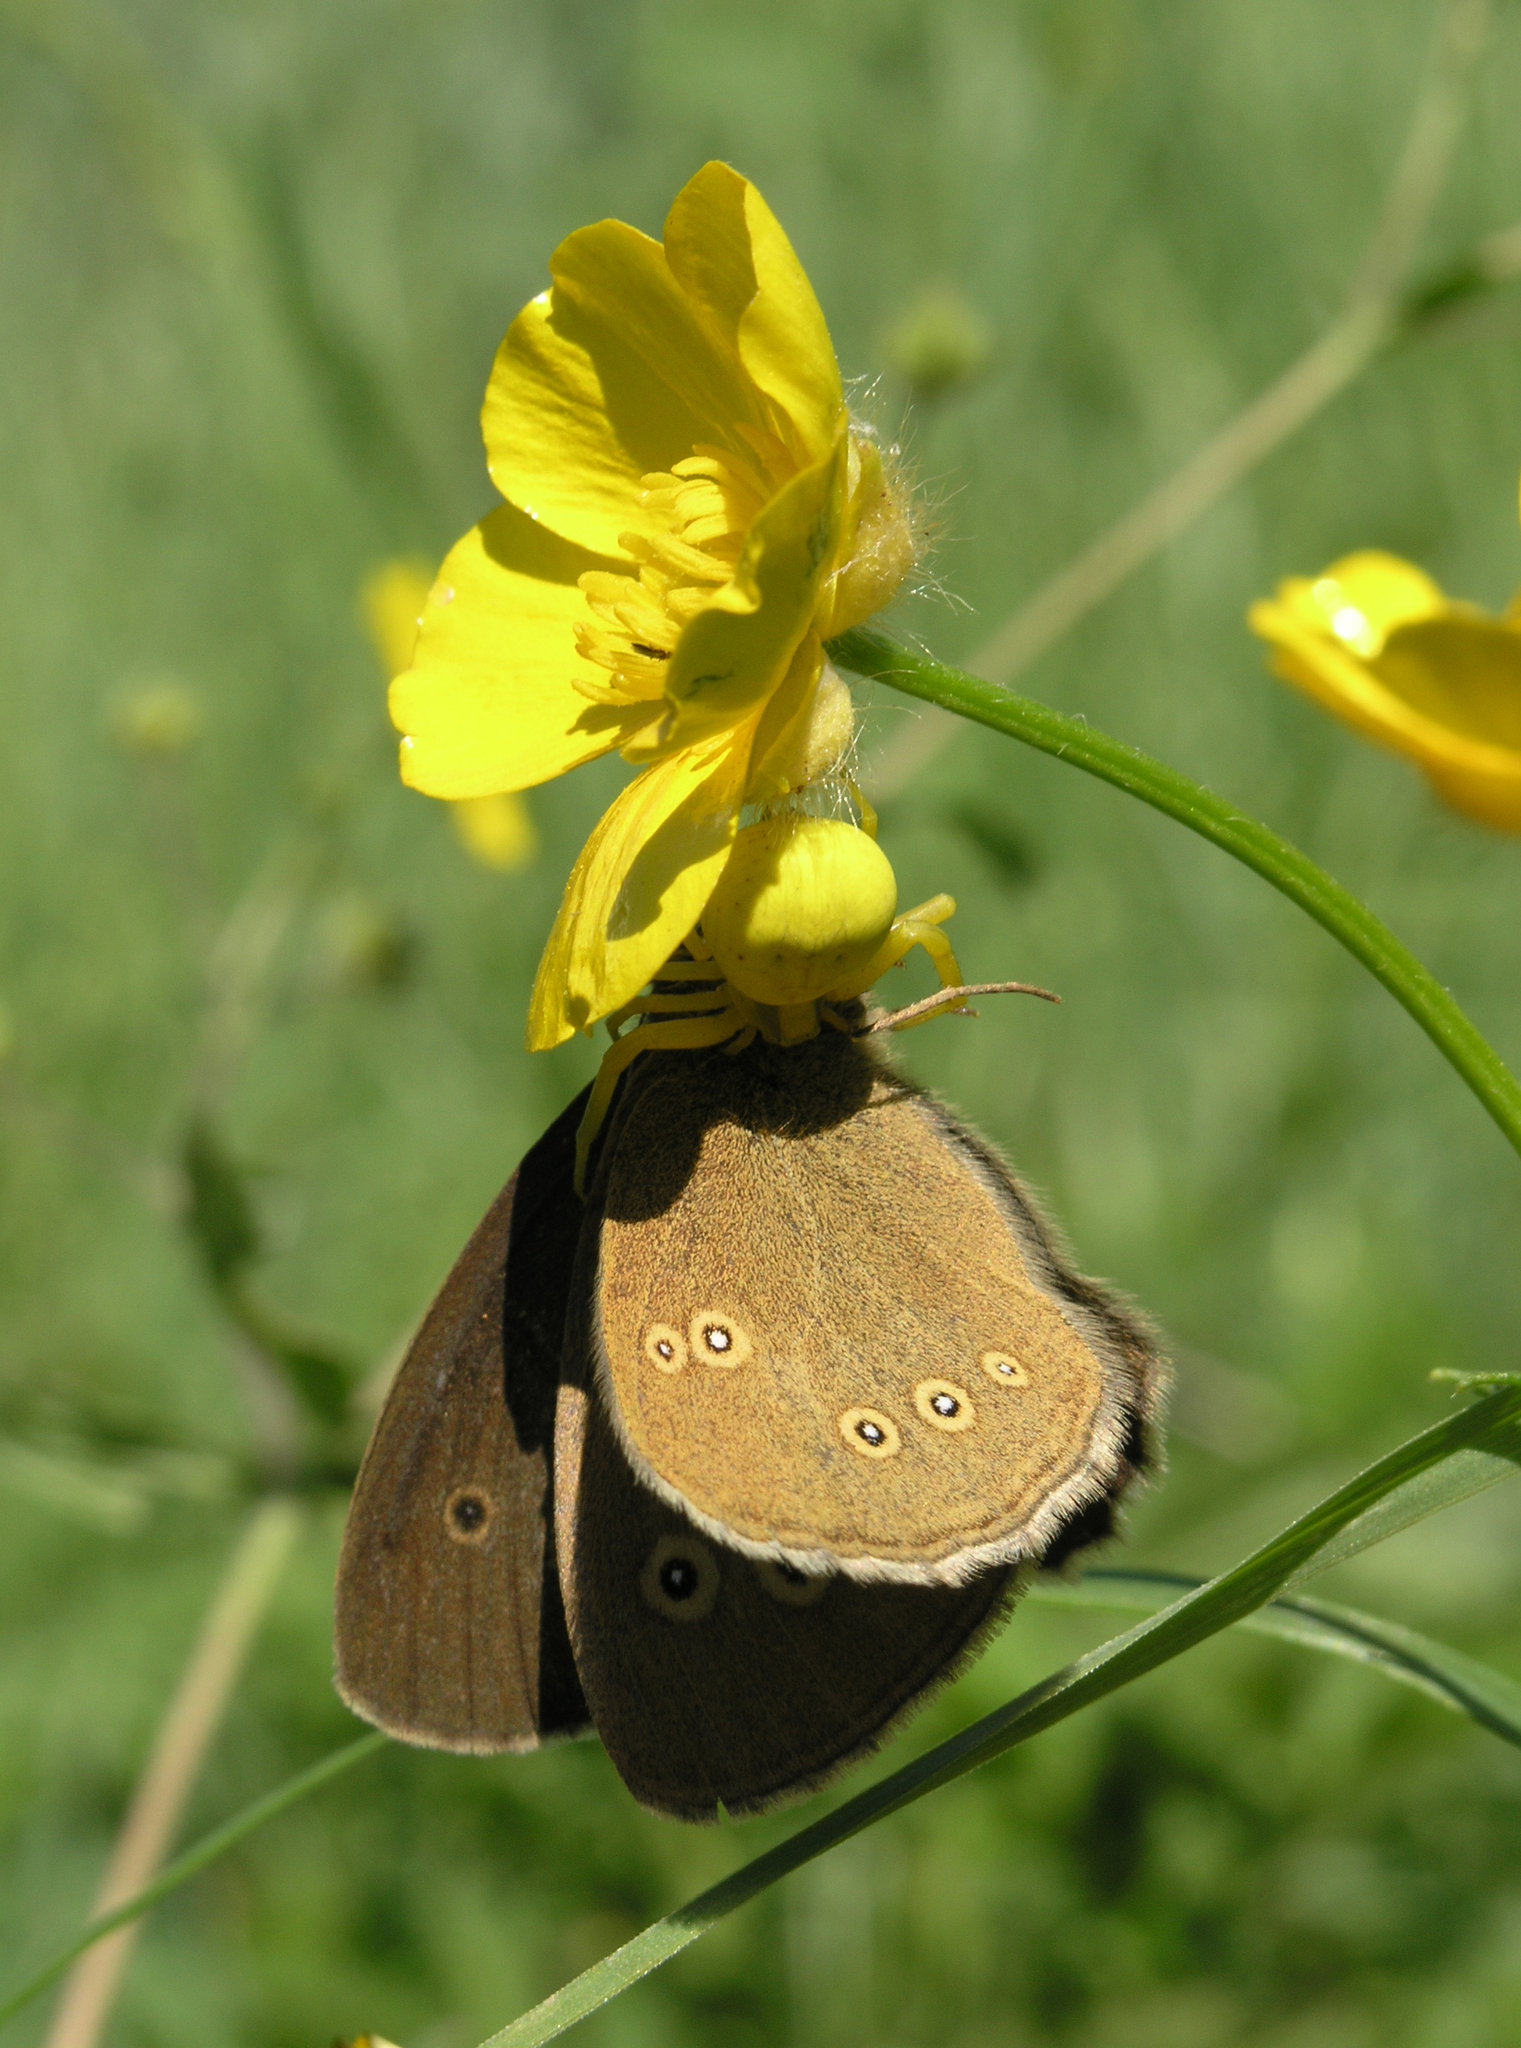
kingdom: Plantae
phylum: Tracheophyta
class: Magnoliopsida
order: Ranunculales
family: Ranunculaceae
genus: Ranunculus
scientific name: Ranunculus polyanthemos
